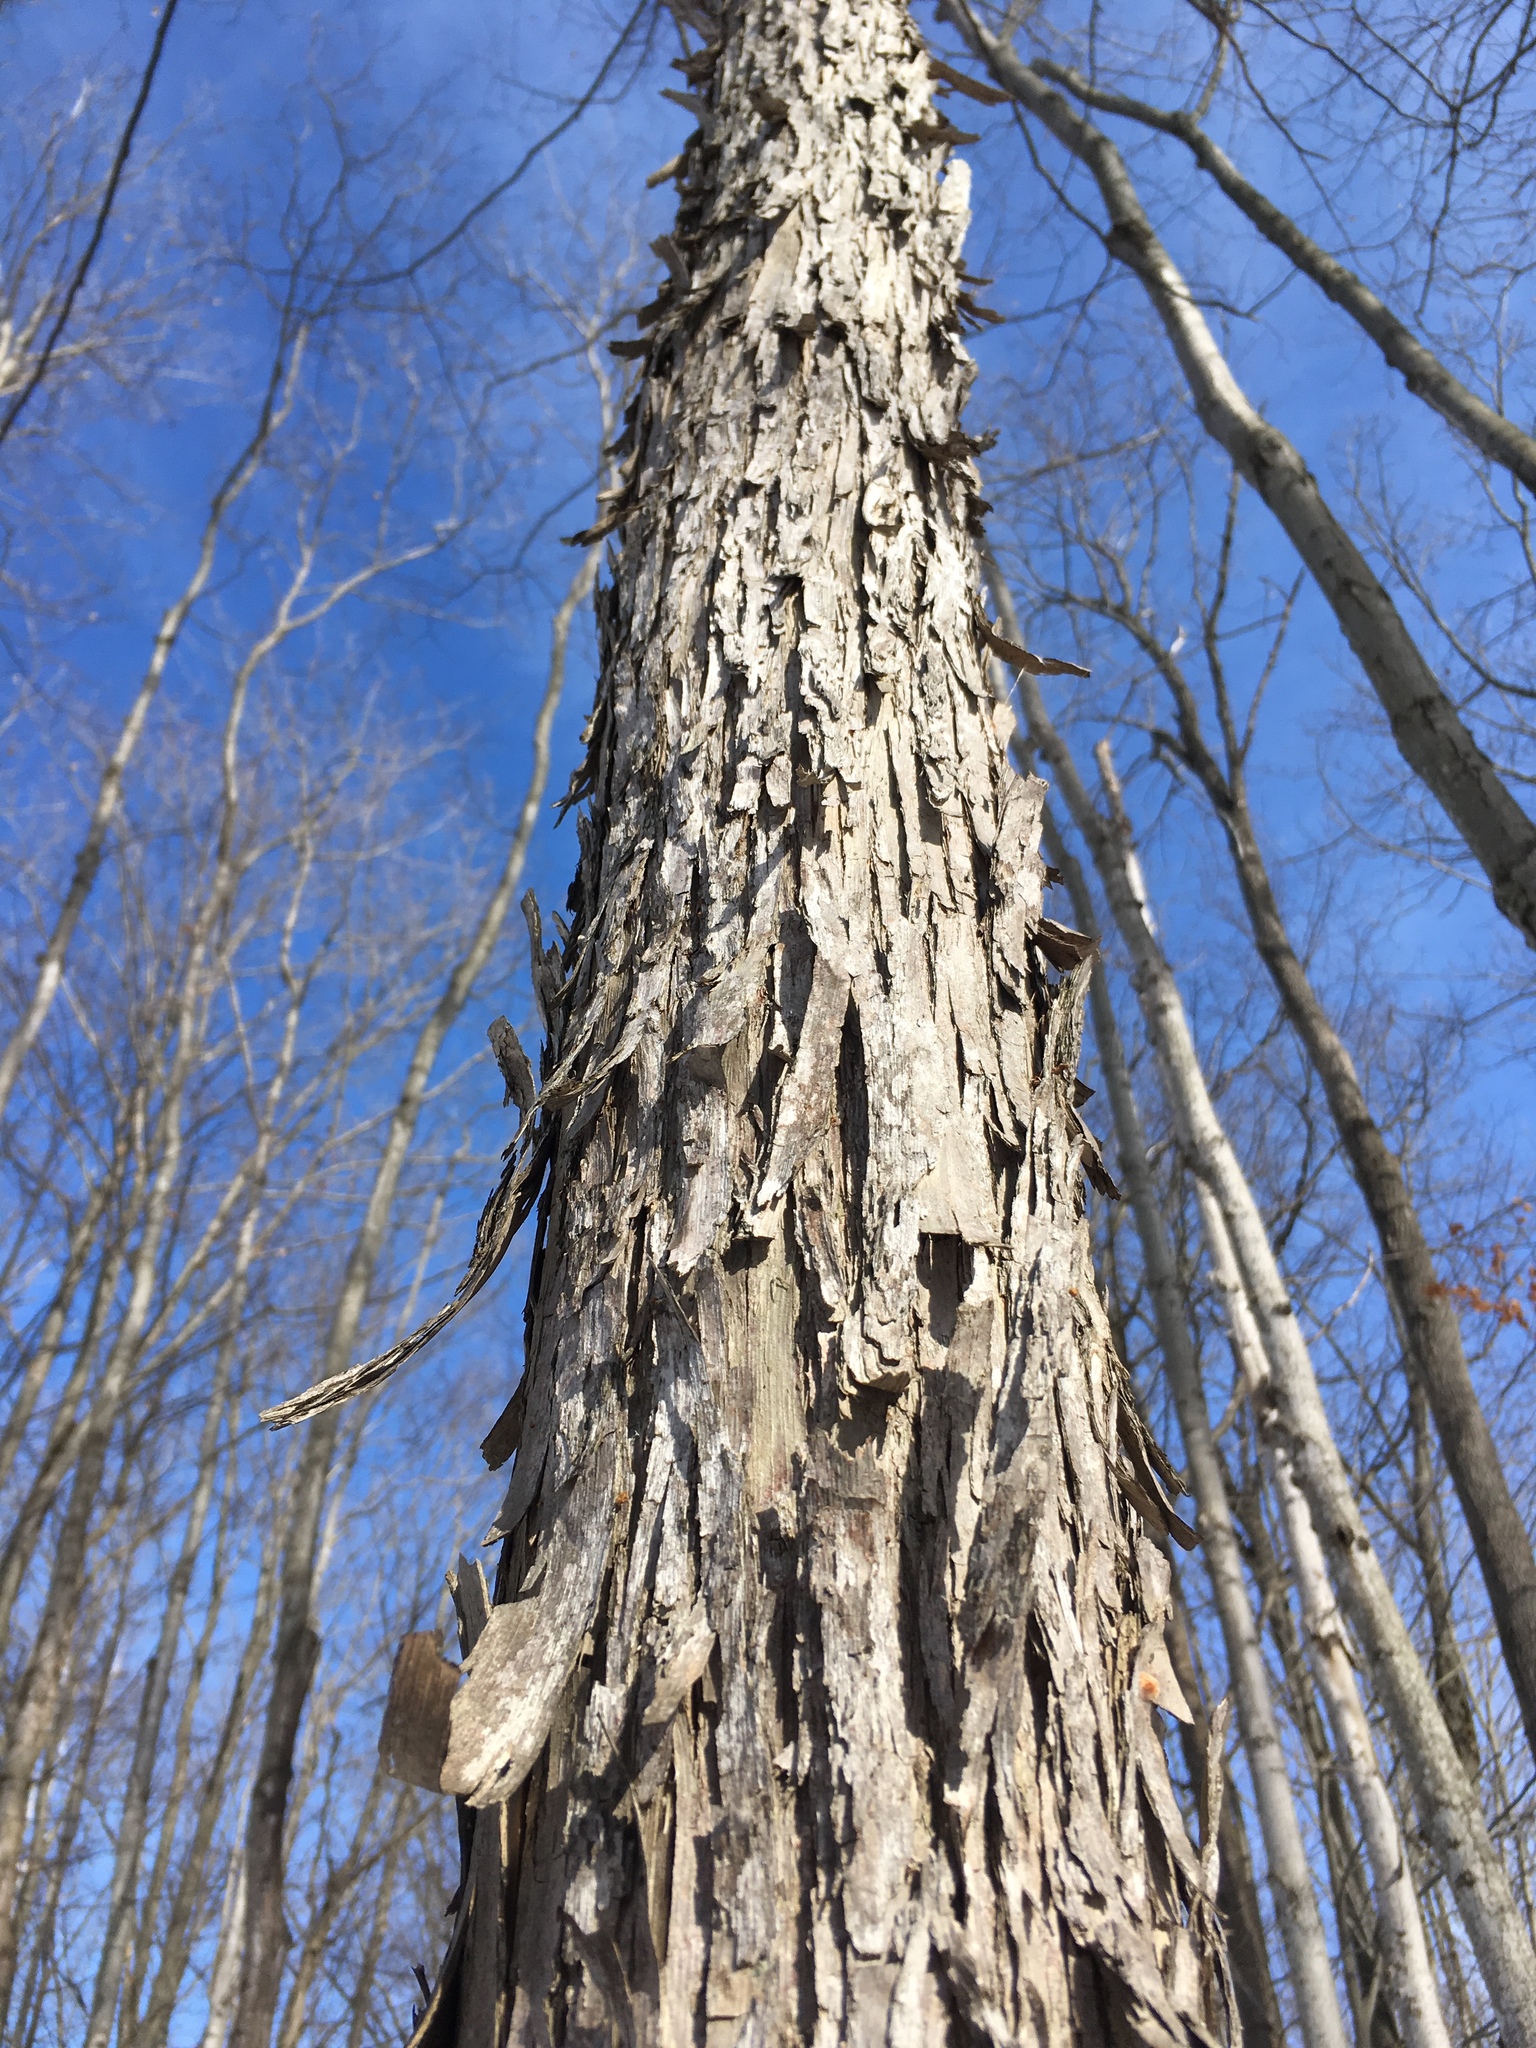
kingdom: Plantae
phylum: Tracheophyta
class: Magnoliopsida
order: Fagales
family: Betulaceae
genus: Ostrya
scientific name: Ostrya virginiana
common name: Ironwood
